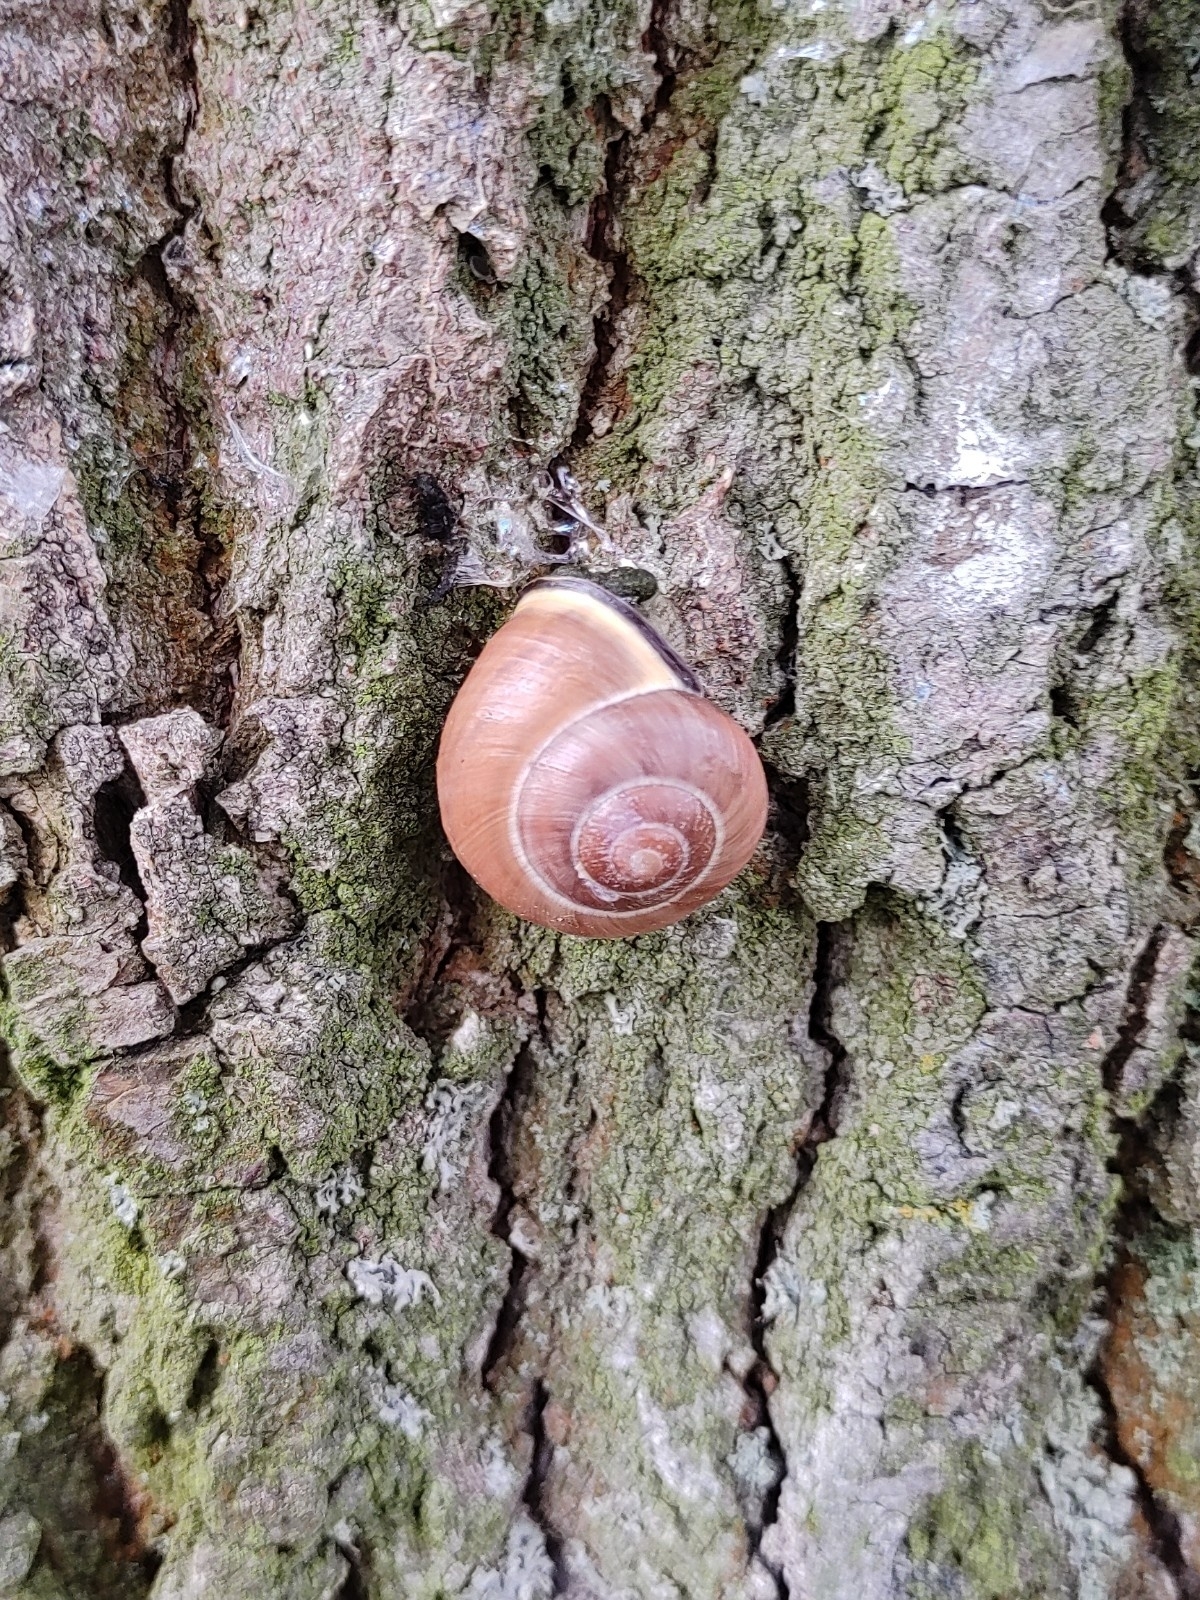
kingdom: Animalia
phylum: Mollusca
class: Gastropoda
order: Stylommatophora
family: Helicidae
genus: Cepaea
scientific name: Cepaea nemoralis
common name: Grovesnail
